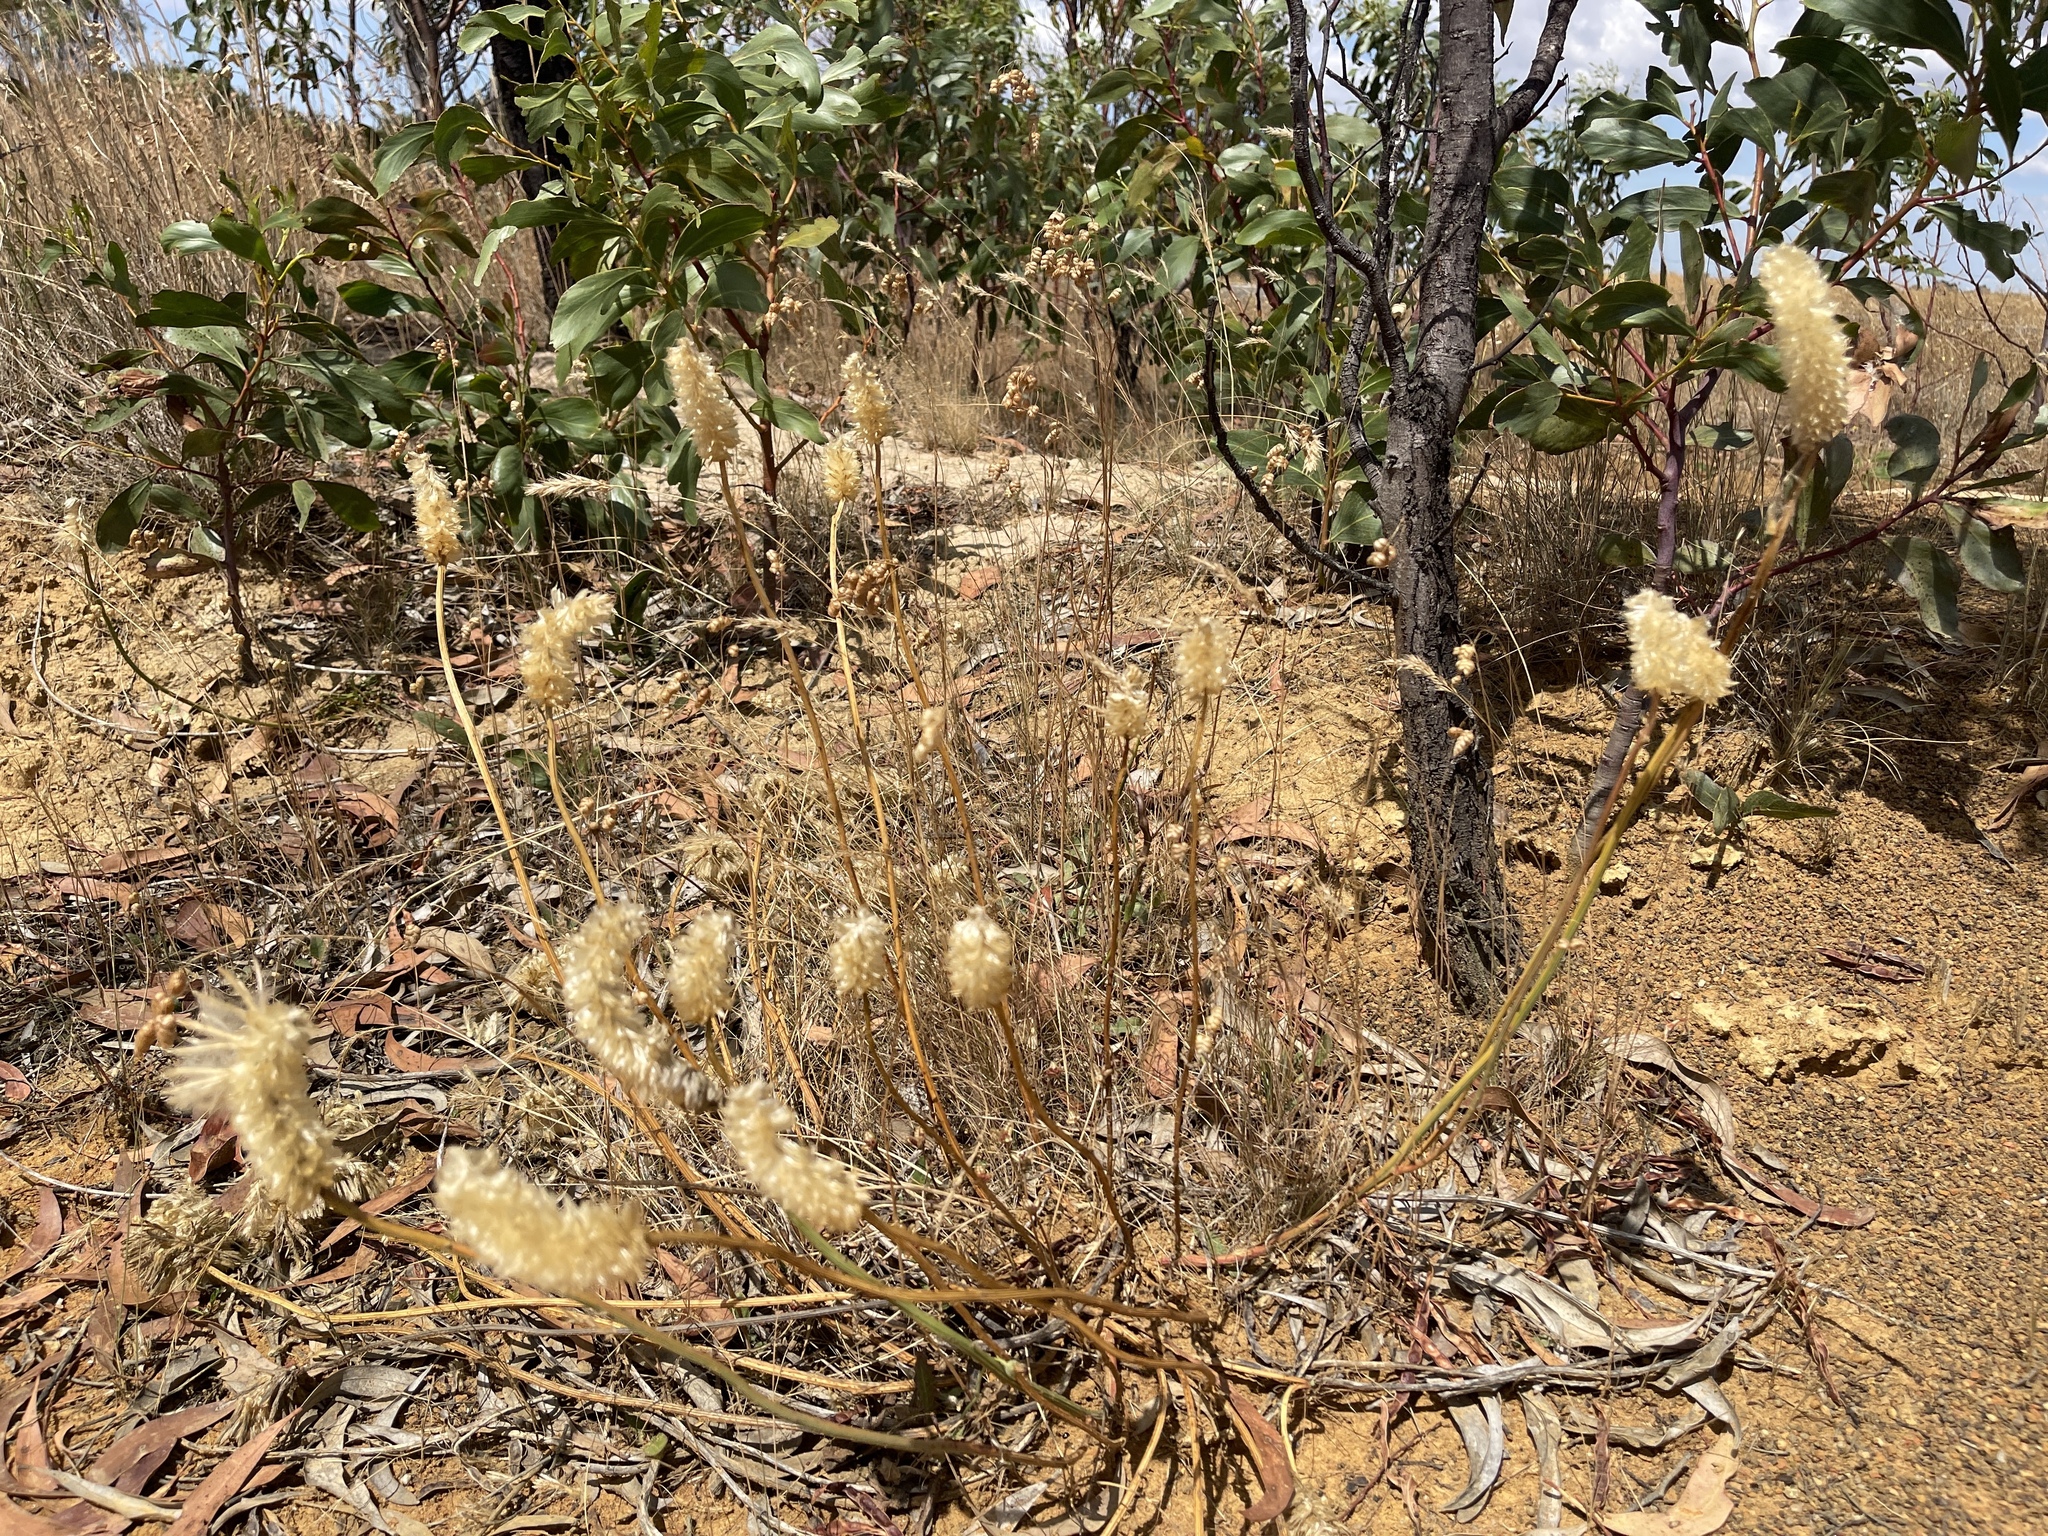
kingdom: Plantae
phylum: Tracheophyta
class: Magnoliopsida
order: Caryophyllales
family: Amaranthaceae
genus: Ptilotus
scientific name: Ptilotus macrocephalus
